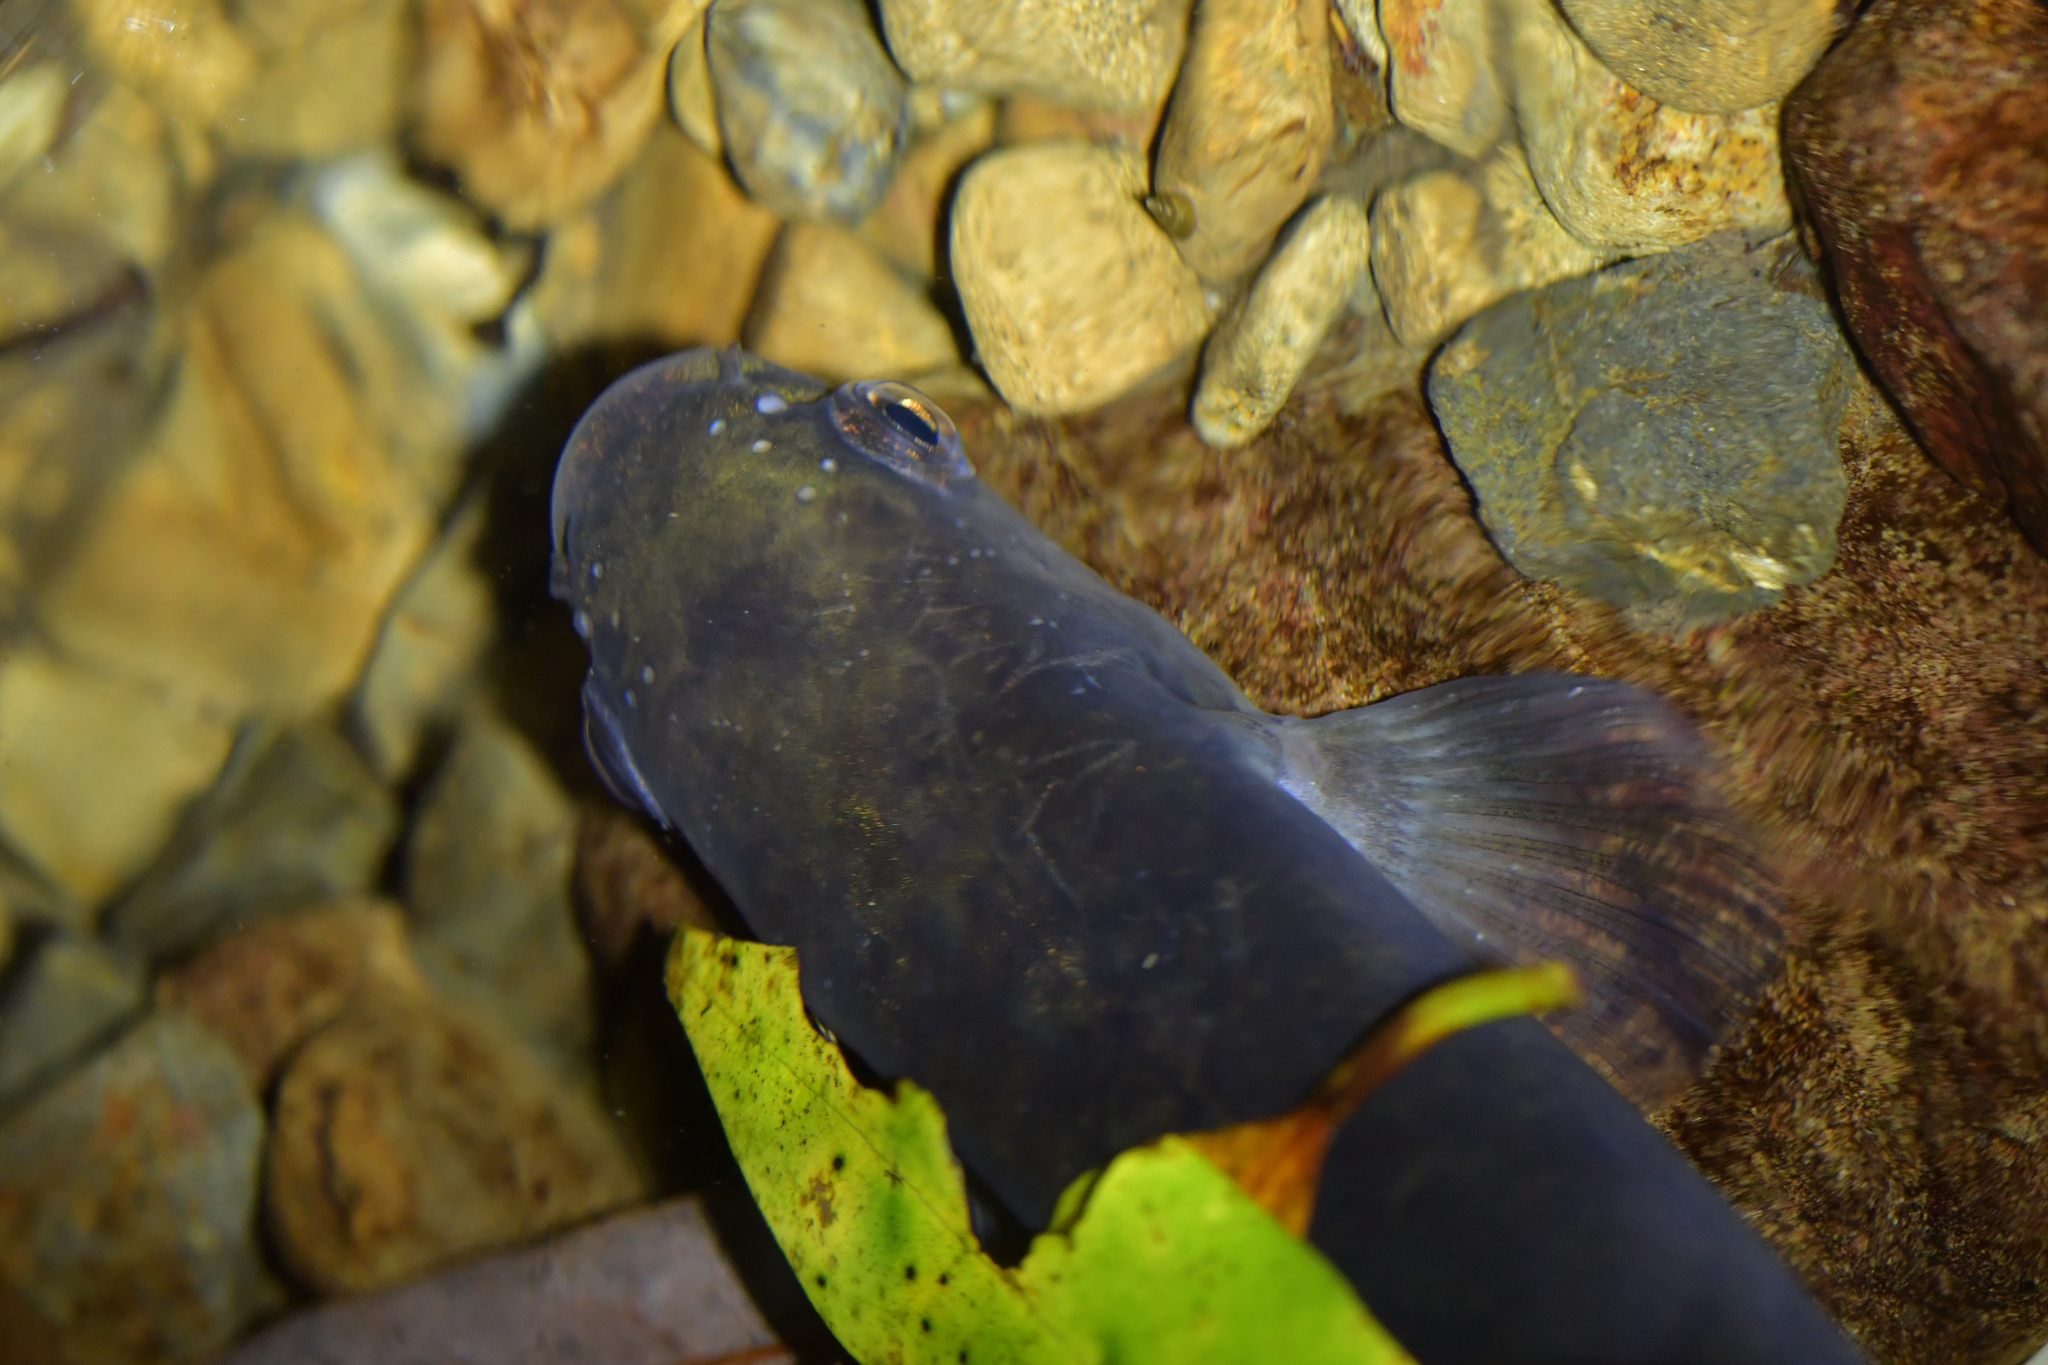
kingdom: Animalia
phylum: Chordata
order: Osmeriformes
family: Galaxiidae
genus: Galaxias
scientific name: Galaxias fasciatus
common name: Banded kokopu
